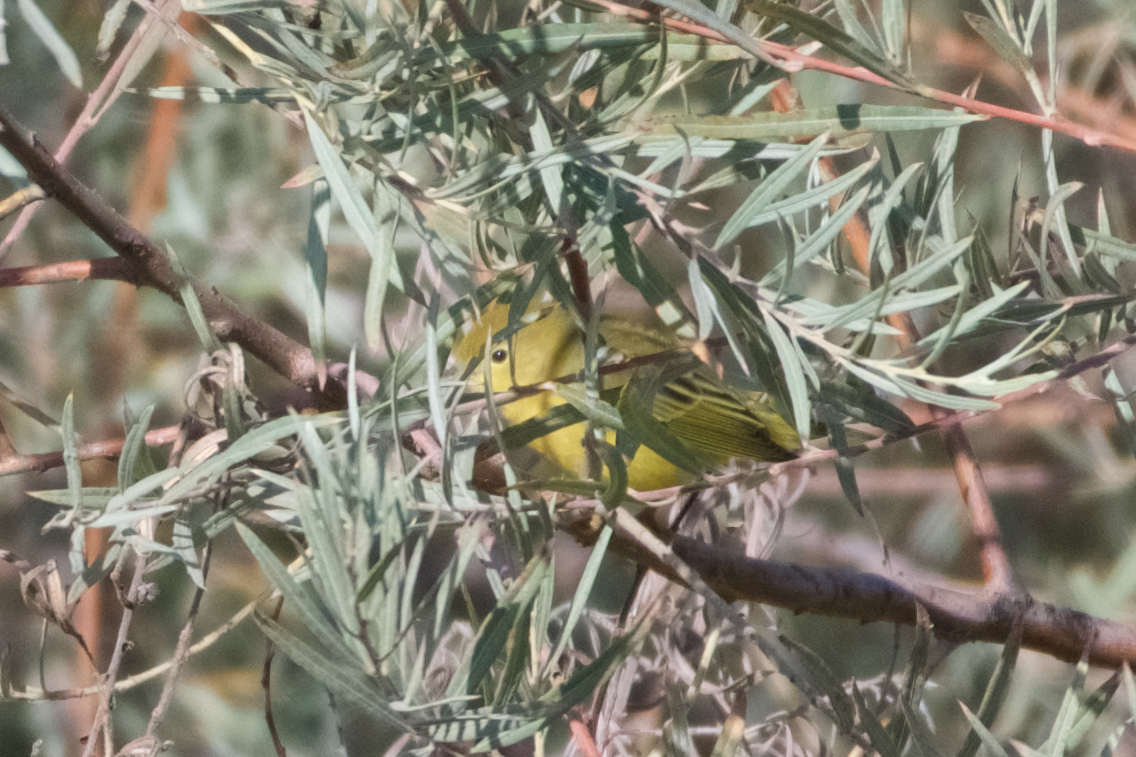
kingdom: Animalia
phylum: Chordata
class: Aves
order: Passeriformes
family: Parulidae
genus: Setophaga
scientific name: Setophaga petechia
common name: Yellow warbler
